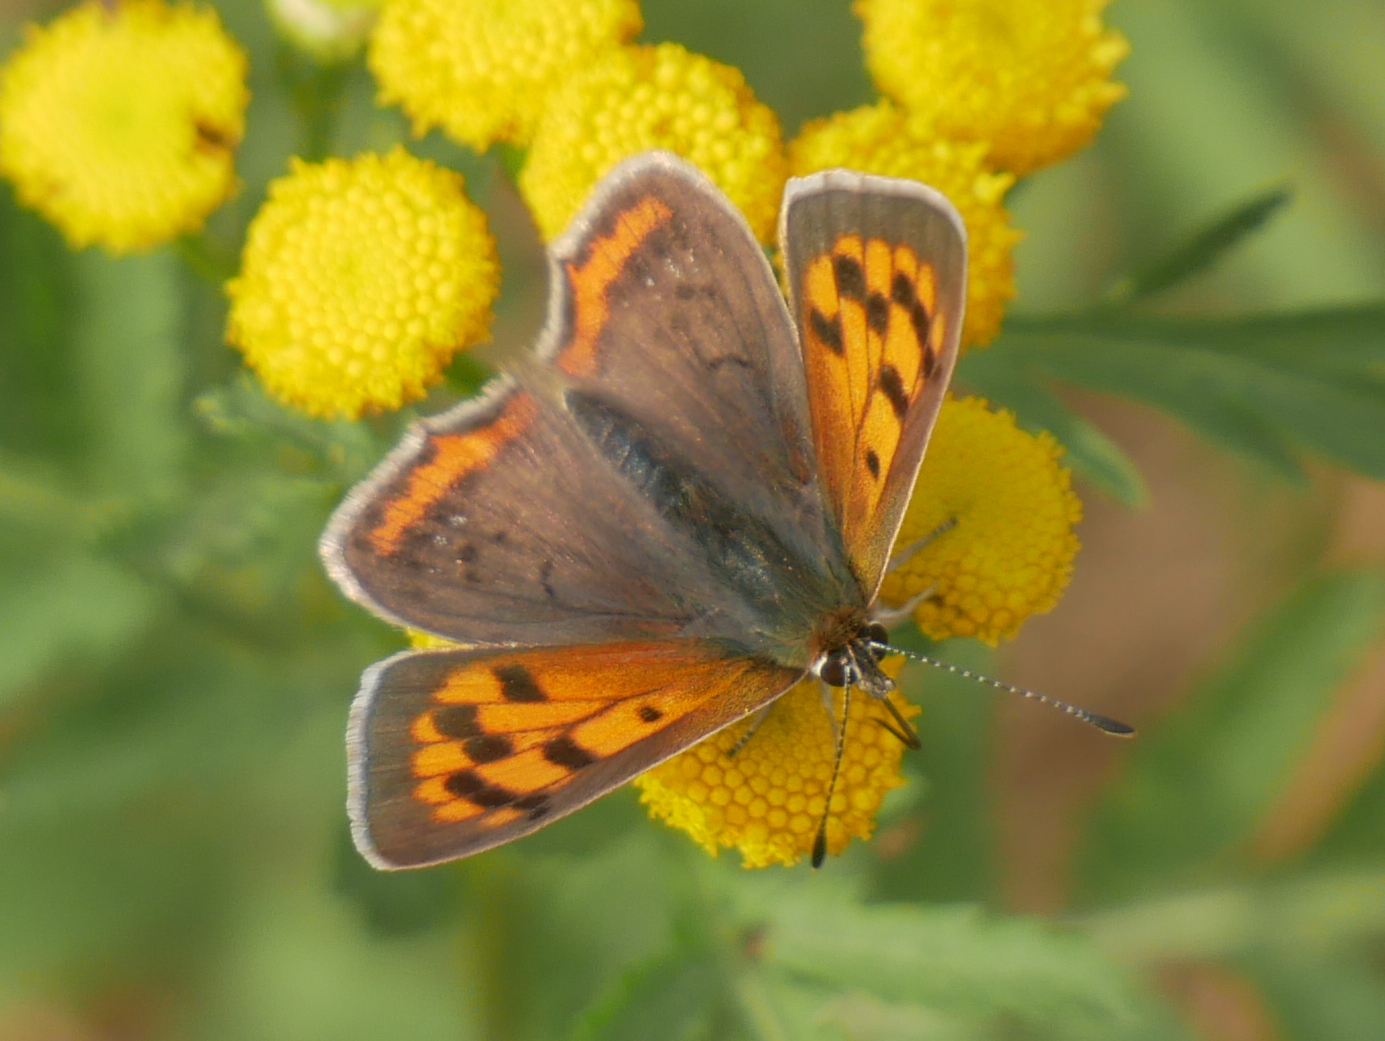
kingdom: Animalia
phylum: Arthropoda
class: Insecta
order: Lepidoptera
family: Lycaenidae
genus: Lycaena
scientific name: Lycaena phlaeas
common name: Small copper
